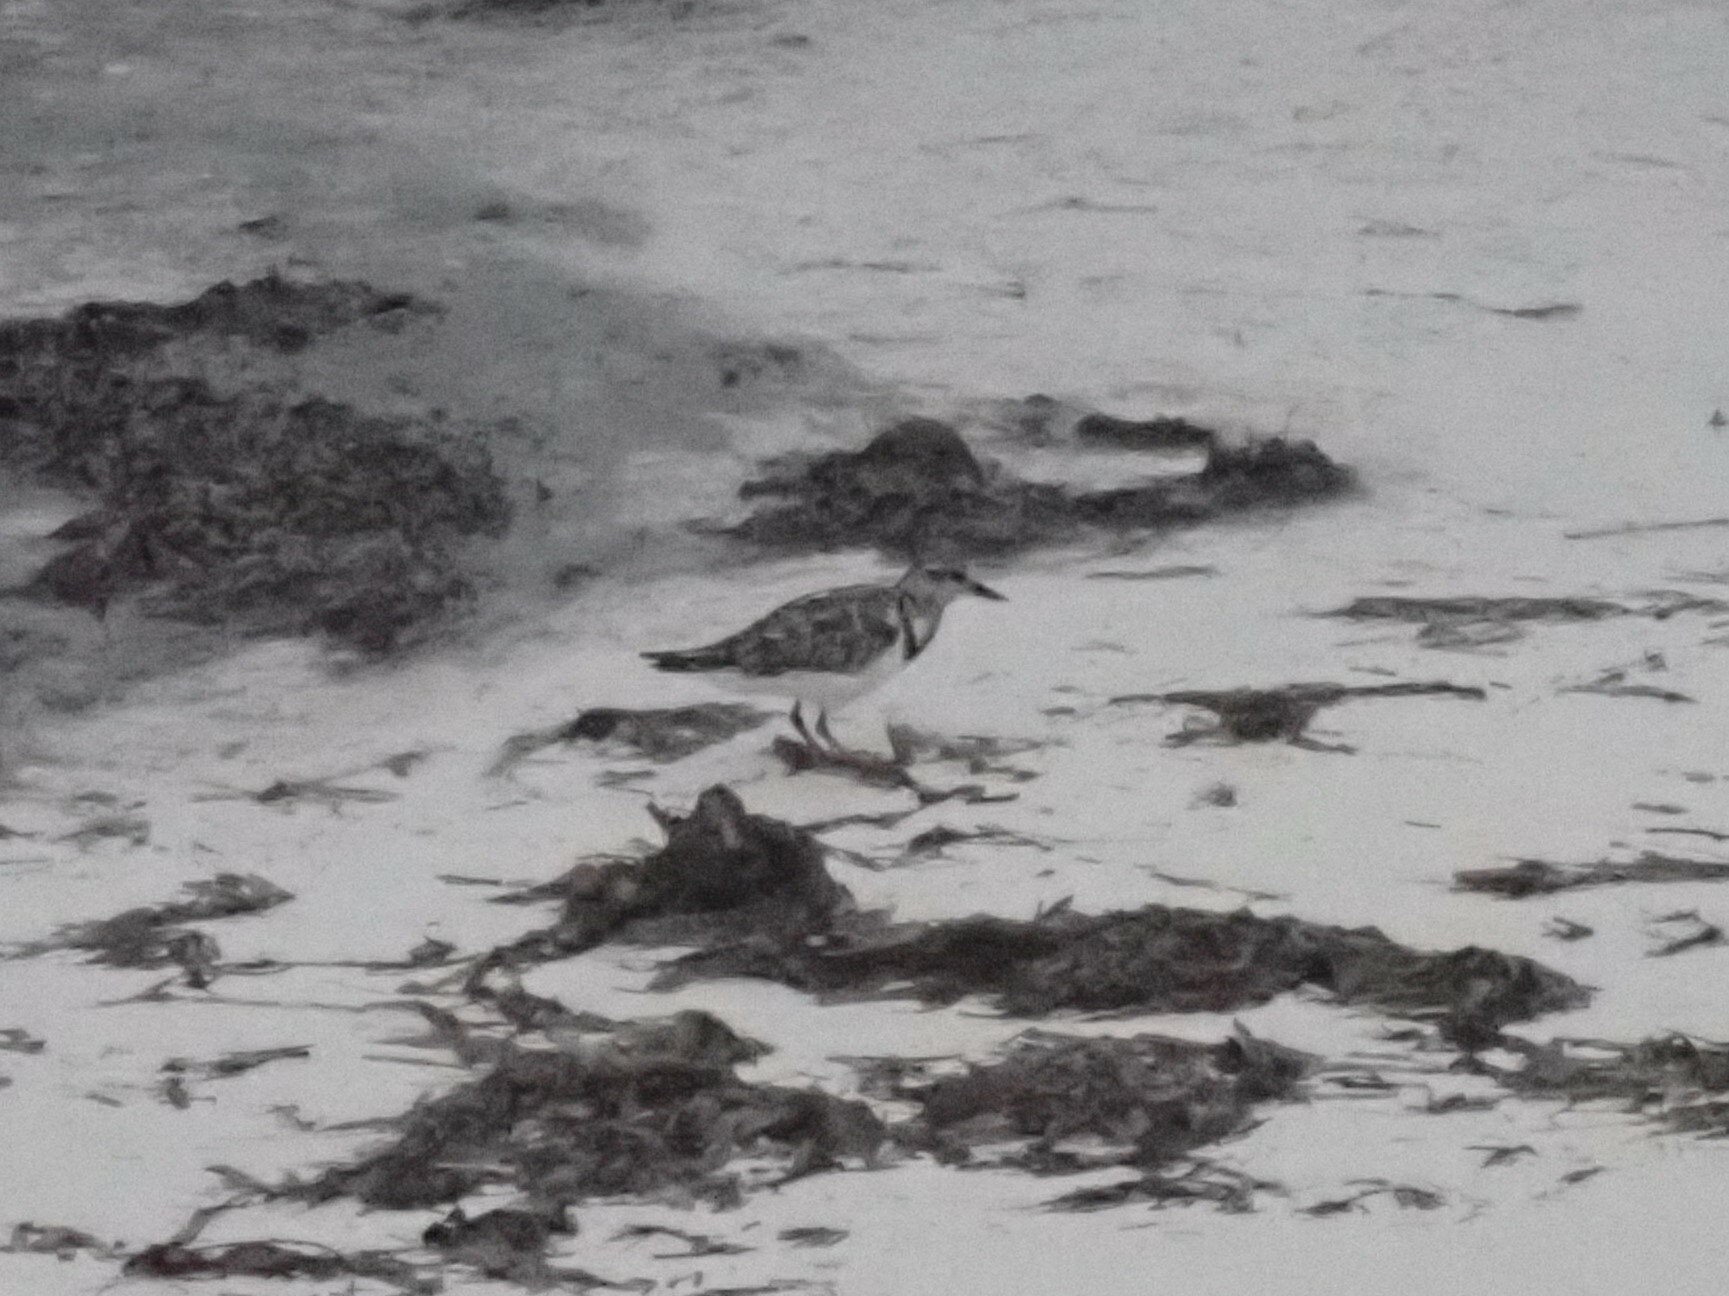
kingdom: Animalia
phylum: Chordata
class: Aves
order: Charadriiformes
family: Scolopacidae
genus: Arenaria
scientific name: Arenaria interpres
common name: Ruddy turnstone
